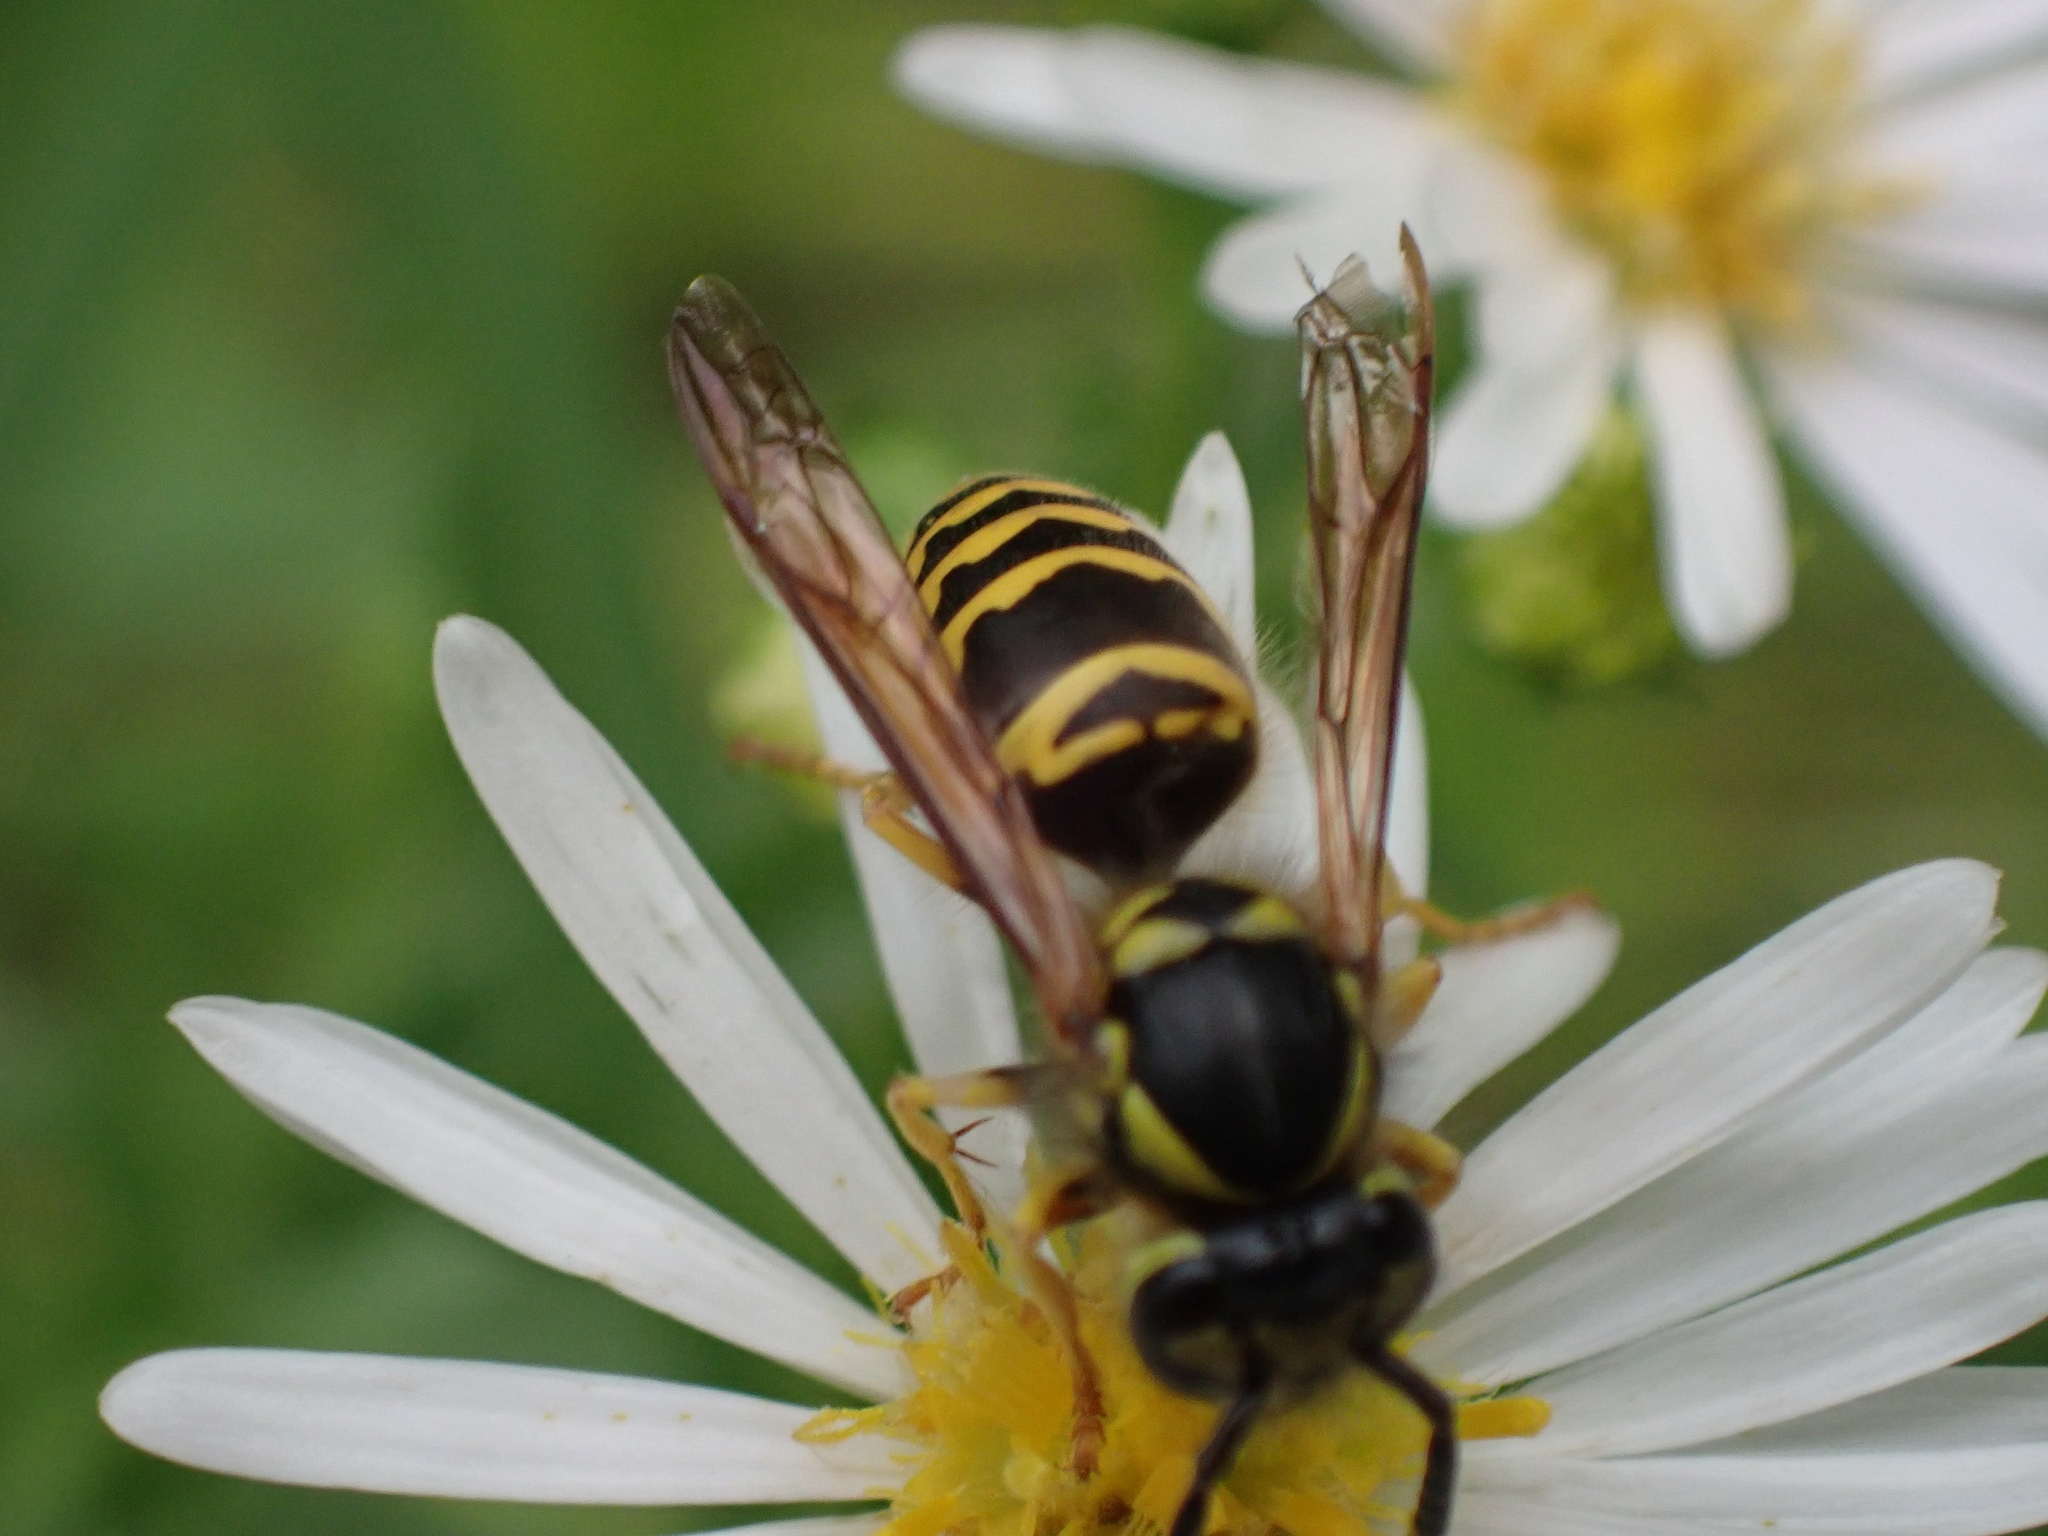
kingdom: Animalia
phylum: Arthropoda
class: Insecta
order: Hymenoptera
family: Vespidae
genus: Vespula
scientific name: Vespula maculifrons
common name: Eastern yellowjacket
